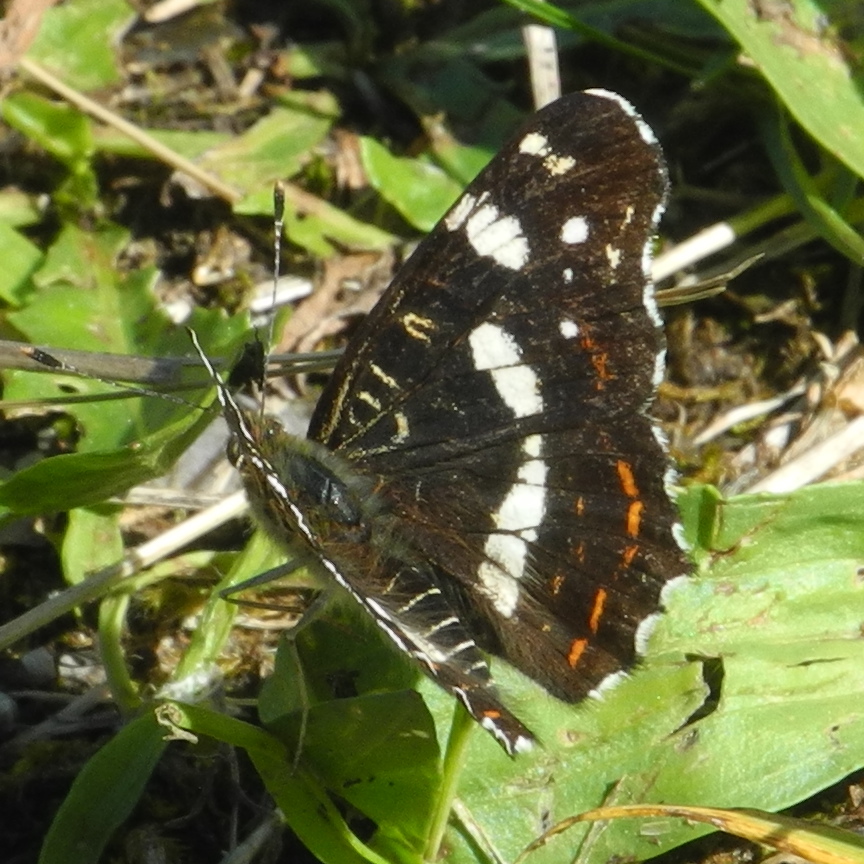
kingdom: Animalia
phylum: Arthropoda
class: Insecta
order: Lepidoptera
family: Nymphalidae
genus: Araschnia
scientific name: Araschnia levana
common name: Map butterfly
